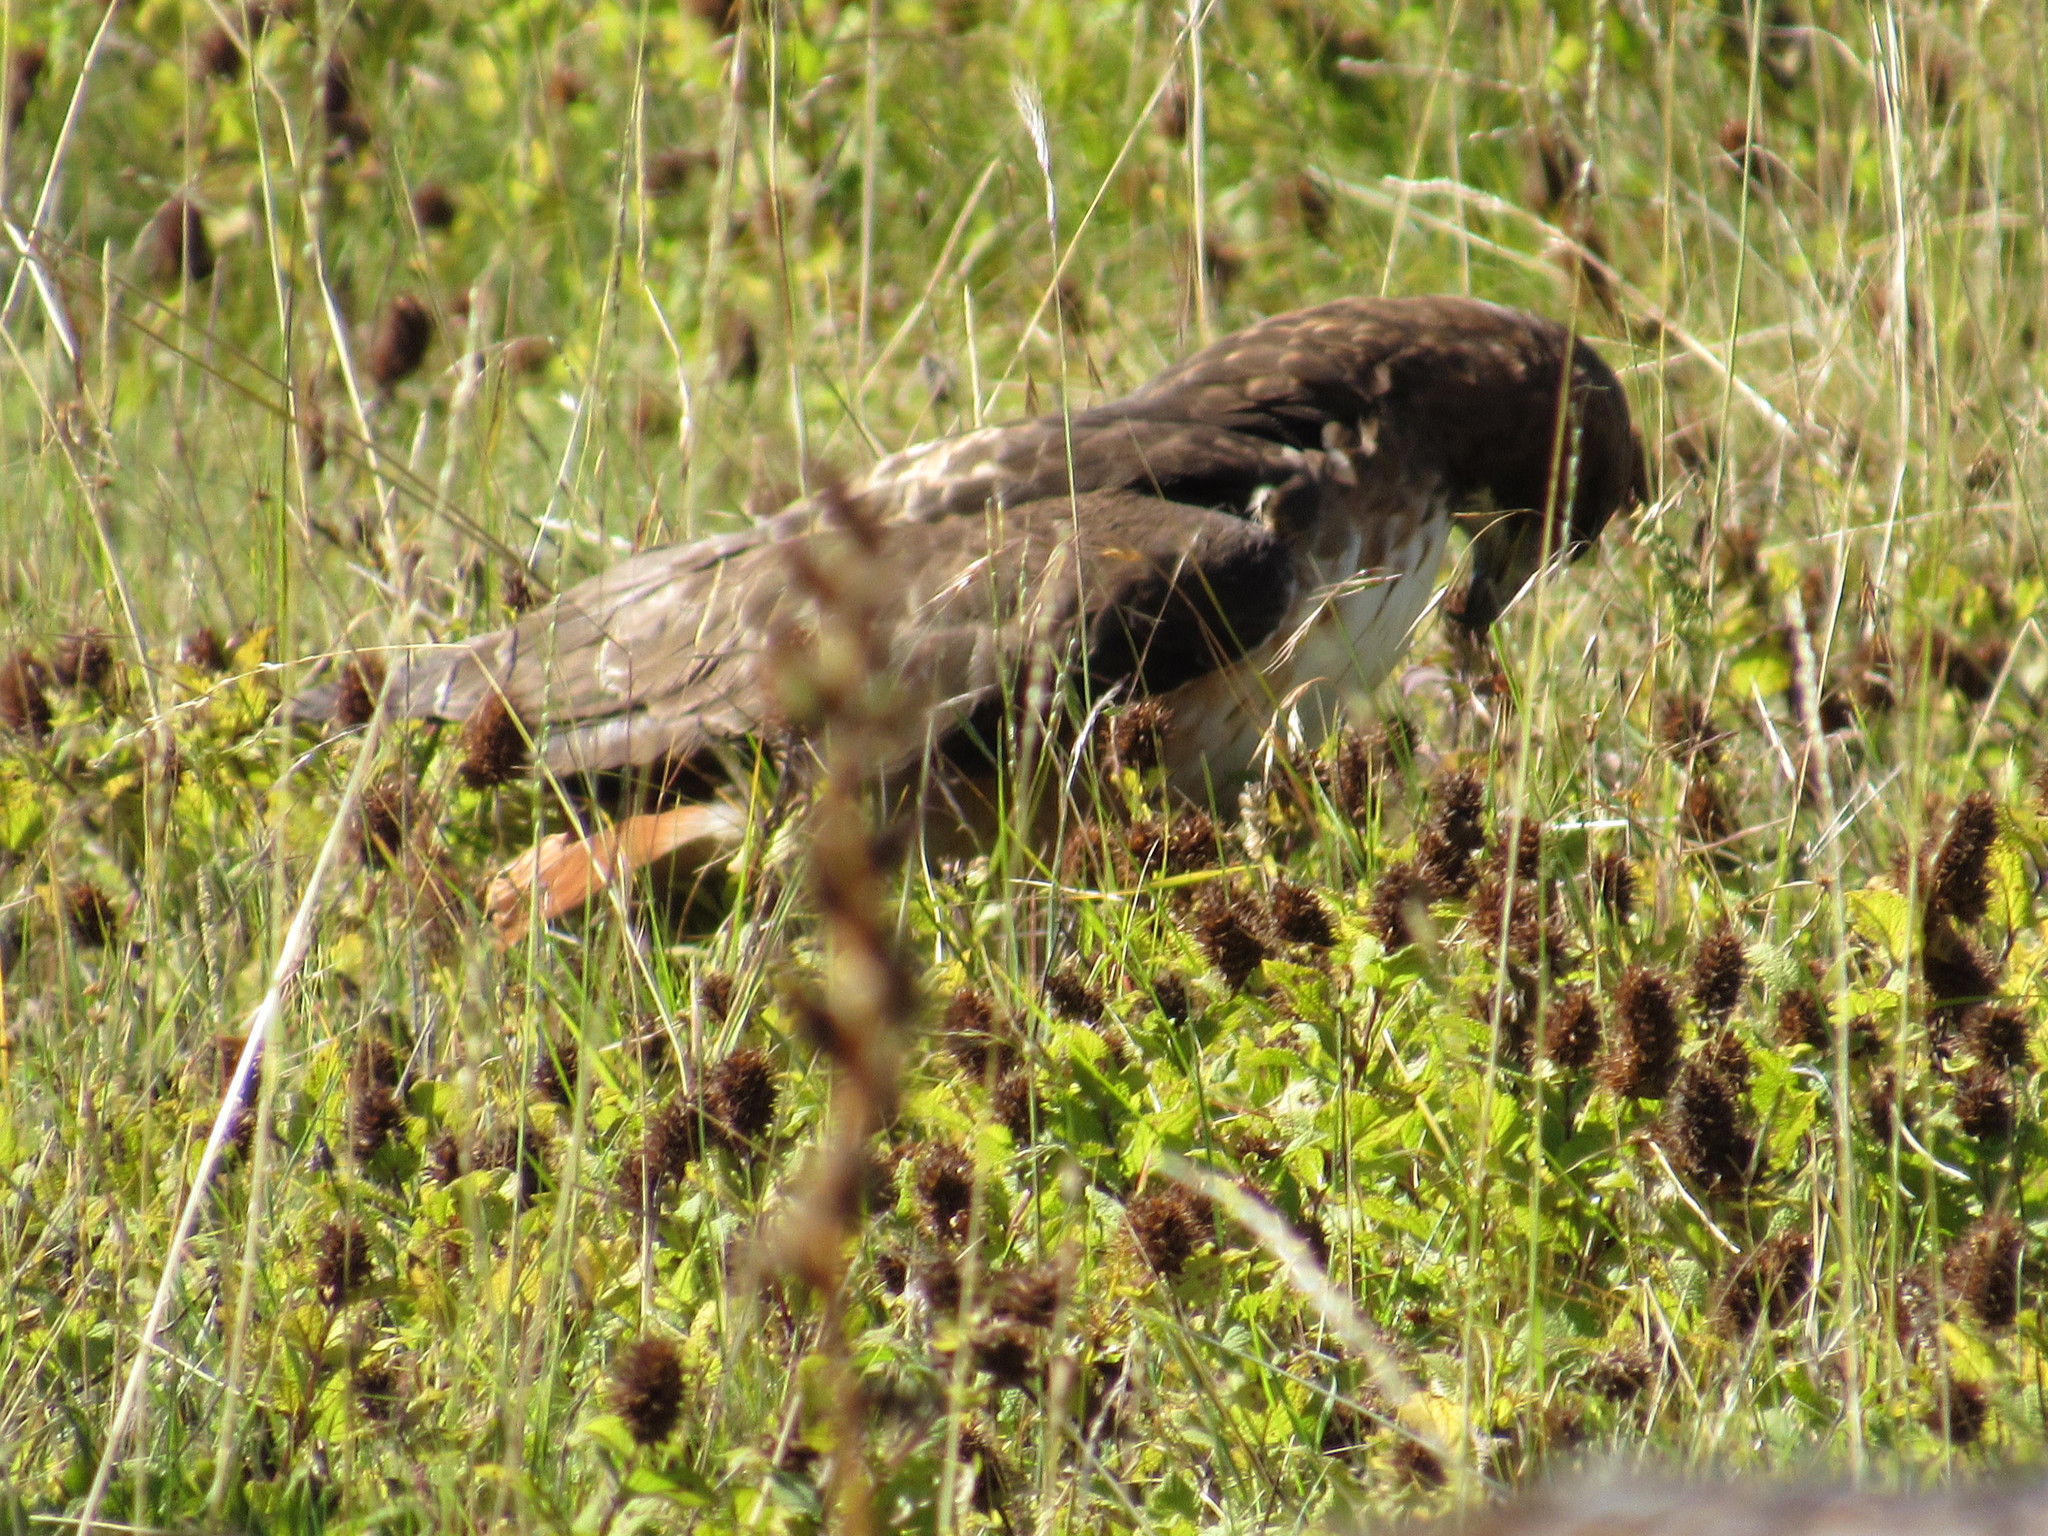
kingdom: Animalia
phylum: Chordata
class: Aves
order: Accipitriformes
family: Accipitridae
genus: Buteo
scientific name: Buteo jamaicensis
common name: Red-tailed hawk
